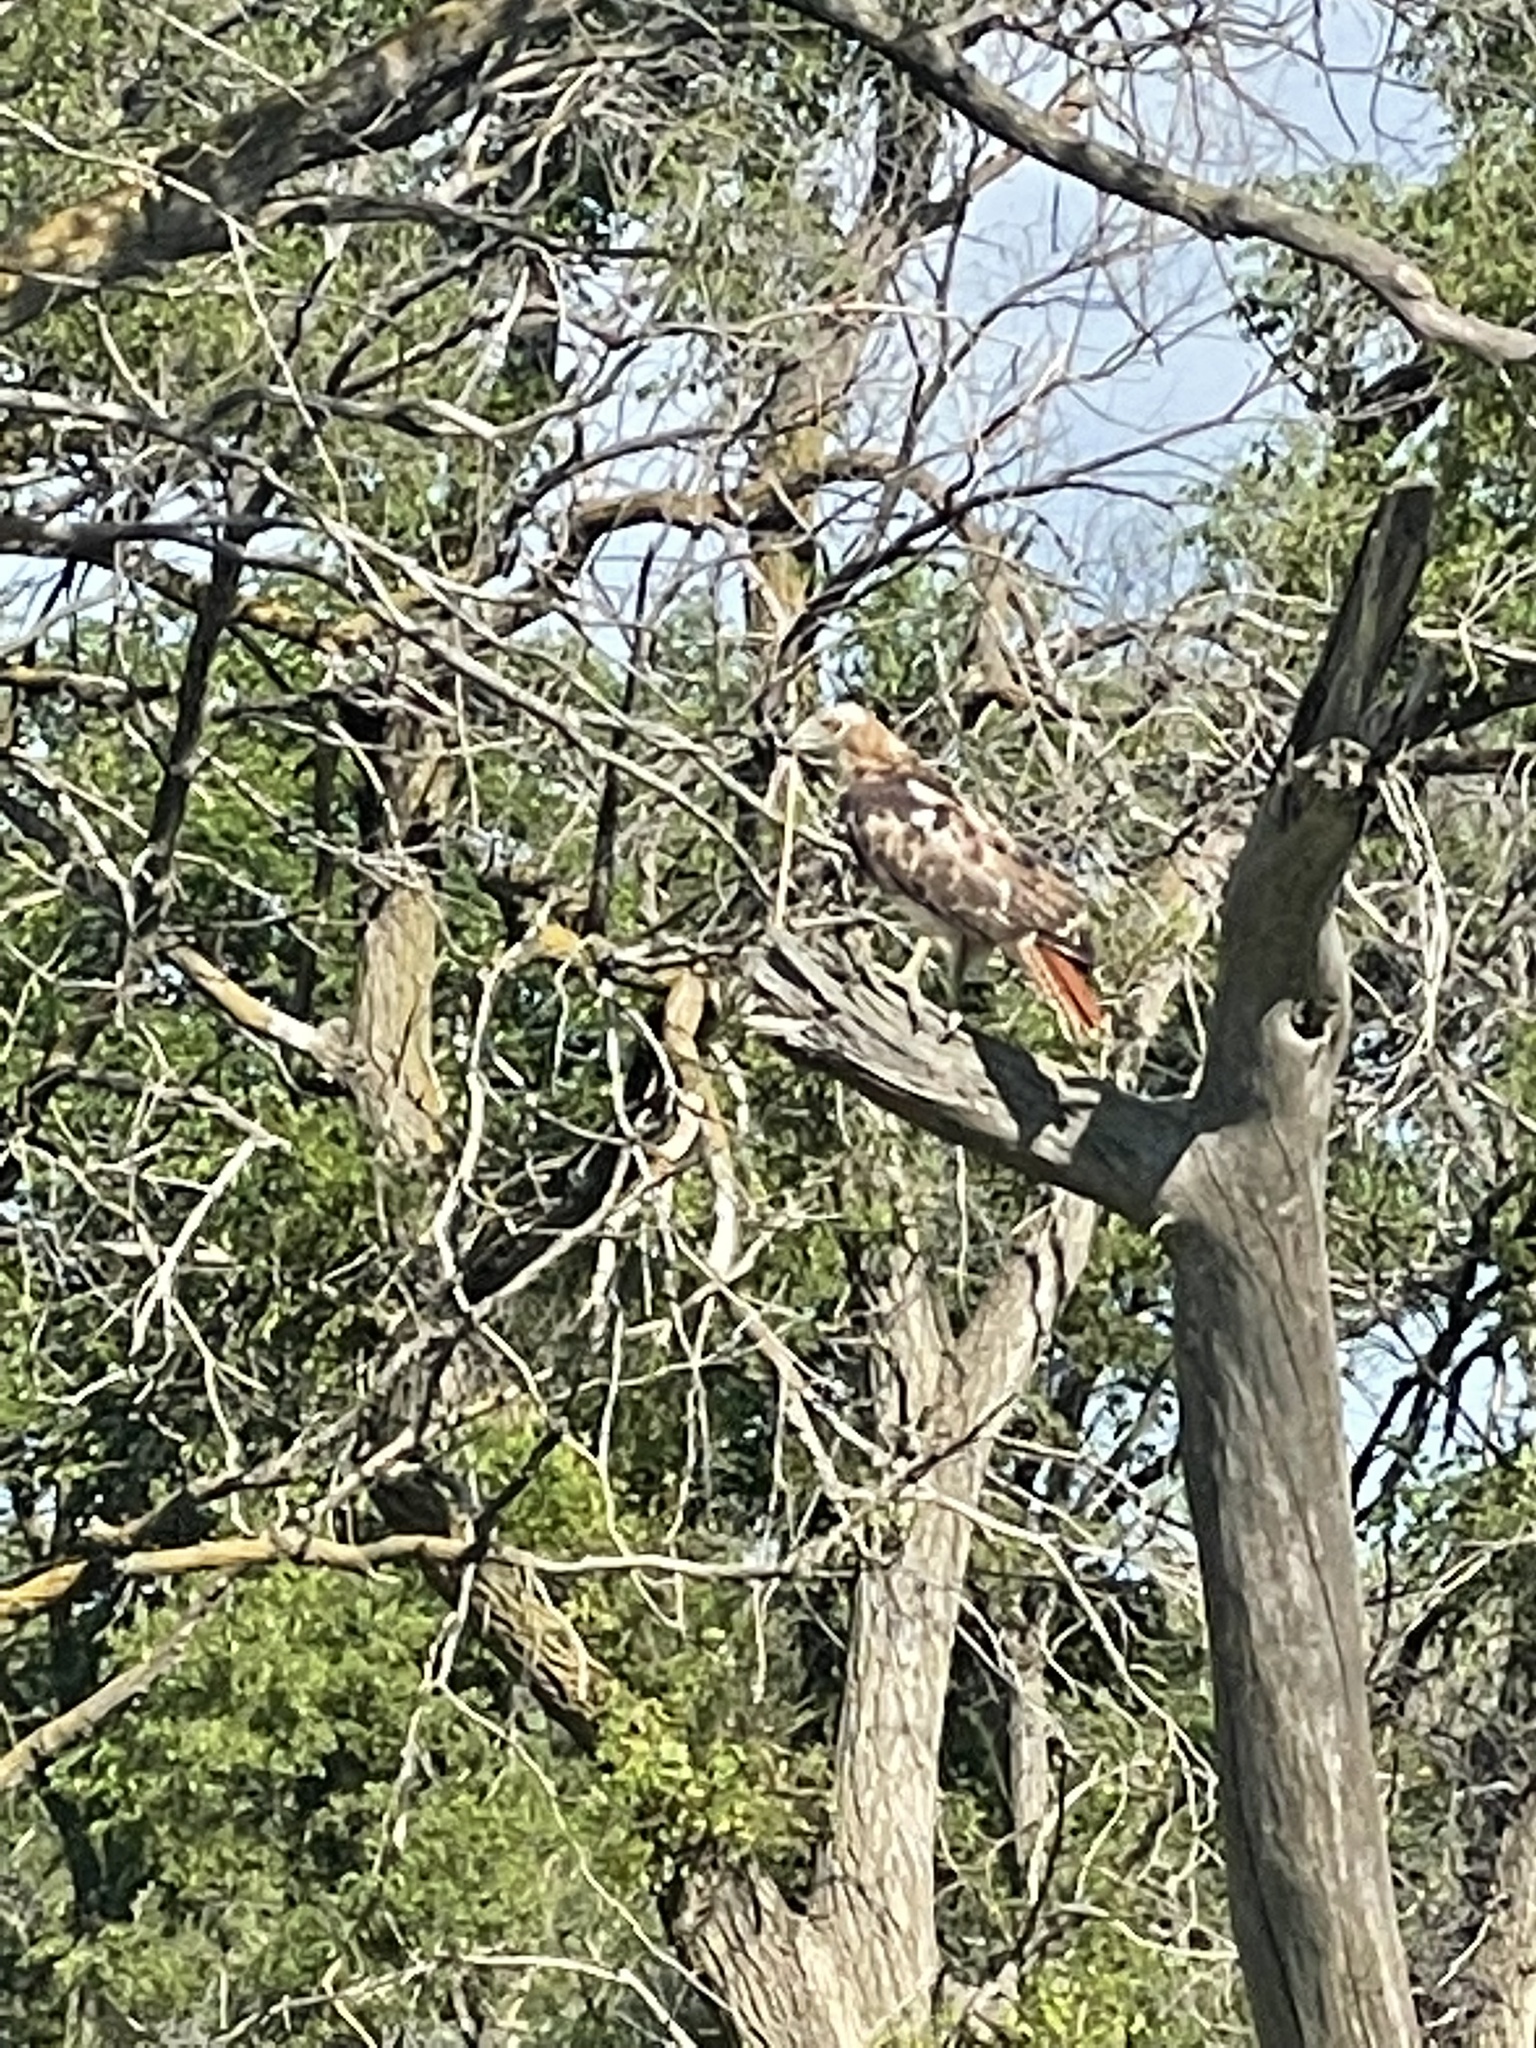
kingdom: Animalia
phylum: Chordata
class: Aves
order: Accipitriformes
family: Accipitridae
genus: Buteo
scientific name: Buteo jamaicensis
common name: Red-tailed hawk
